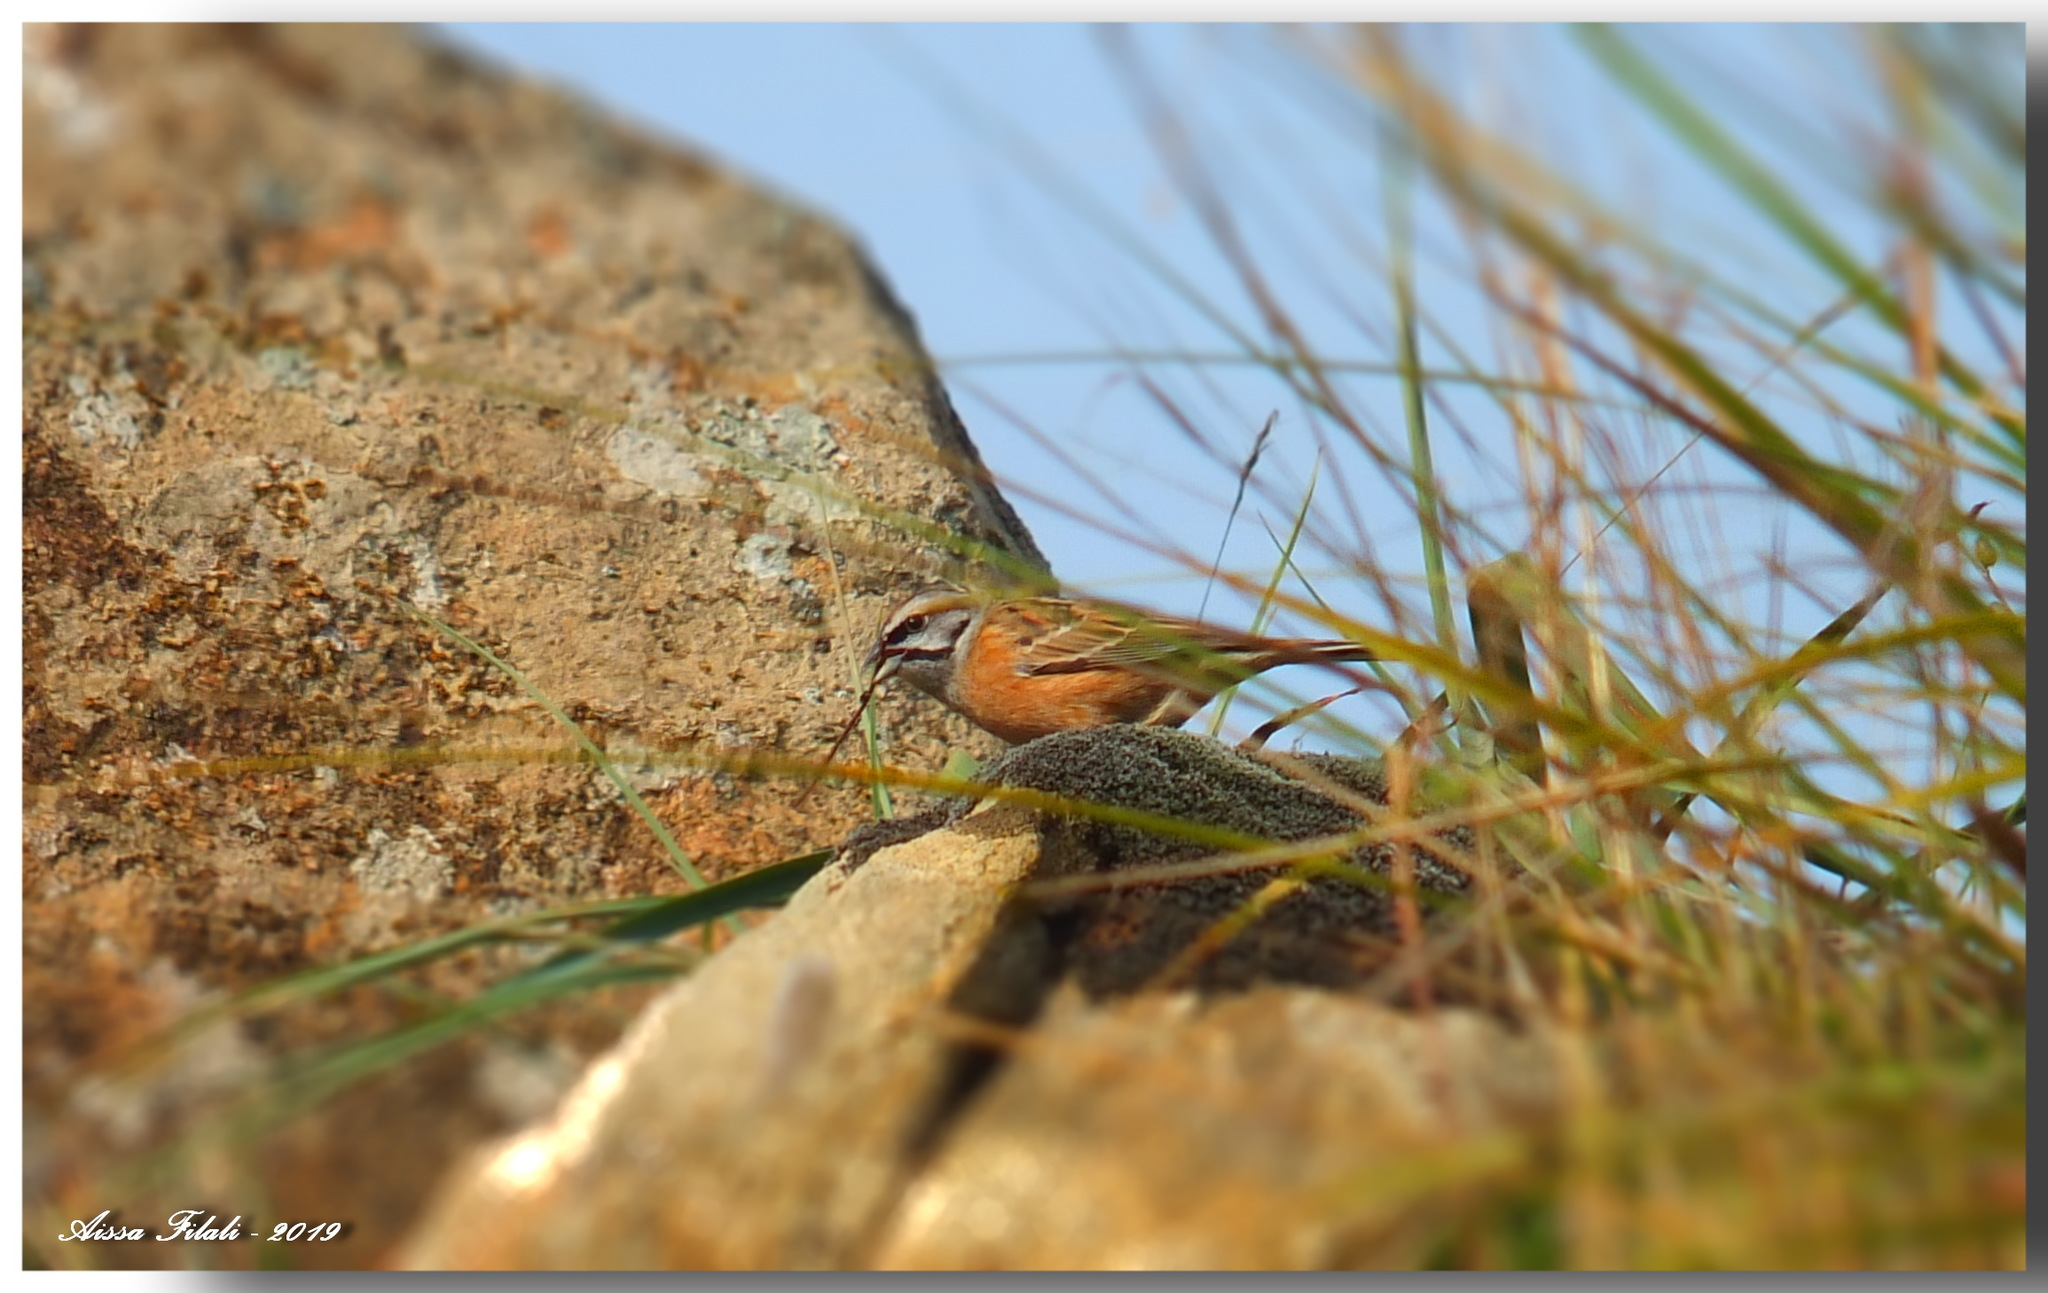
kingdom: Animalia
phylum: Chordata
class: Aves
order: Passeriformes
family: Emberizidae
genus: Emberiza
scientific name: Emberiza cia
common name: Rock bunting
